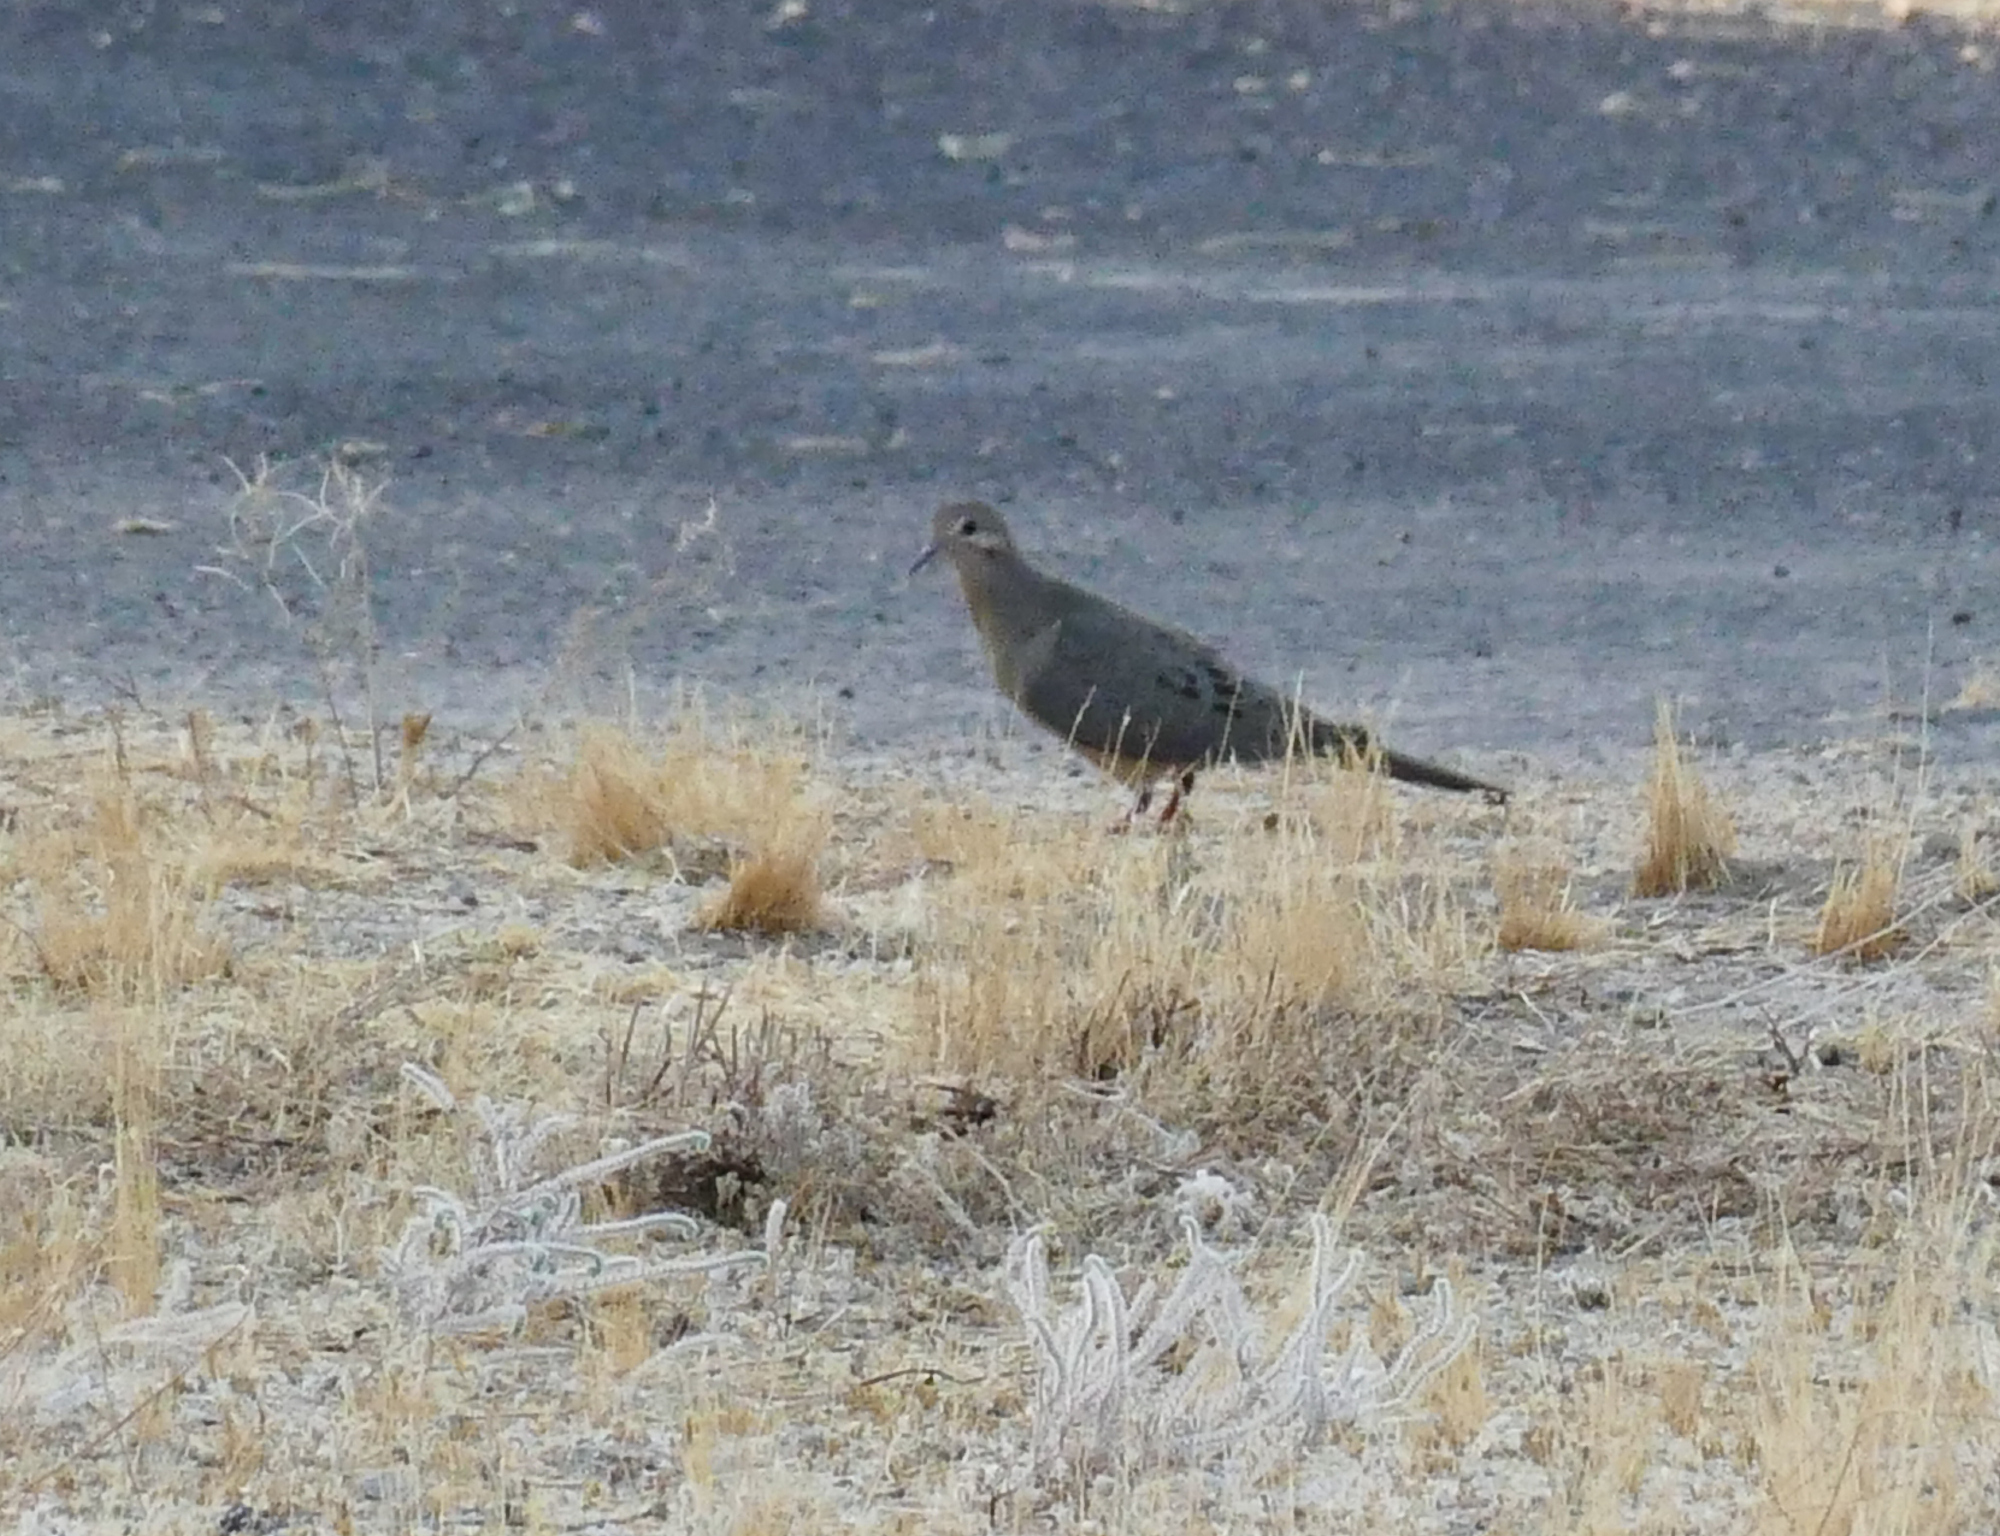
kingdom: Animalia
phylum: Chordata
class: Aves
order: Columbiformes
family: Columbidae
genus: Zenaida
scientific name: Zenaida macroura
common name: Mourning dove
